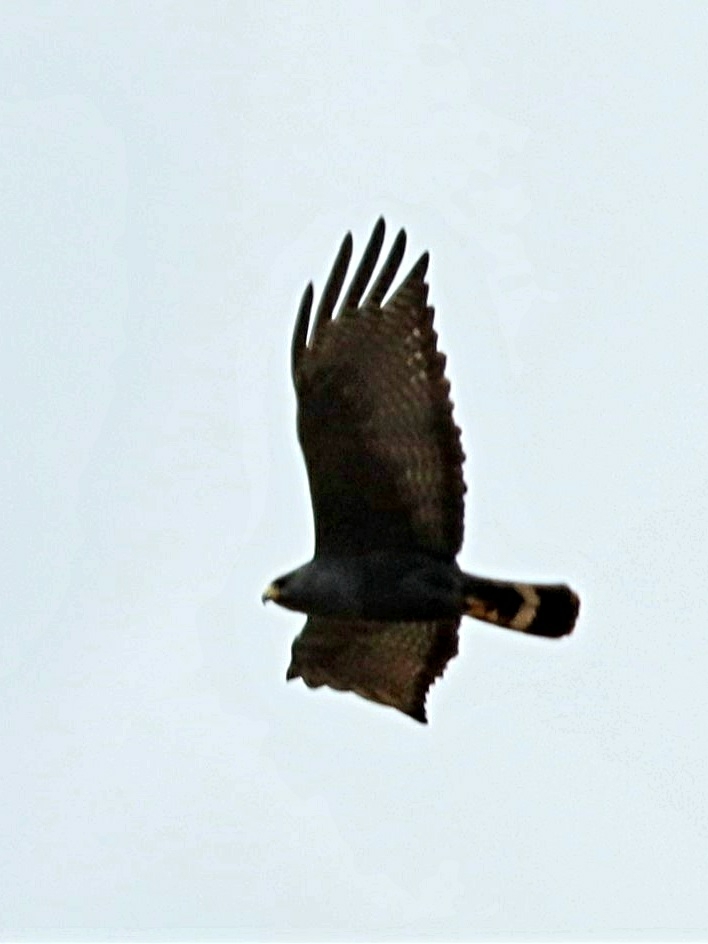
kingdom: Animalia
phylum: Chordata
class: Aves
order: Accipitriformes
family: Accipitridae
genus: Buteo
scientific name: Buteo albonotatus
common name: Zone-tailed hawk
